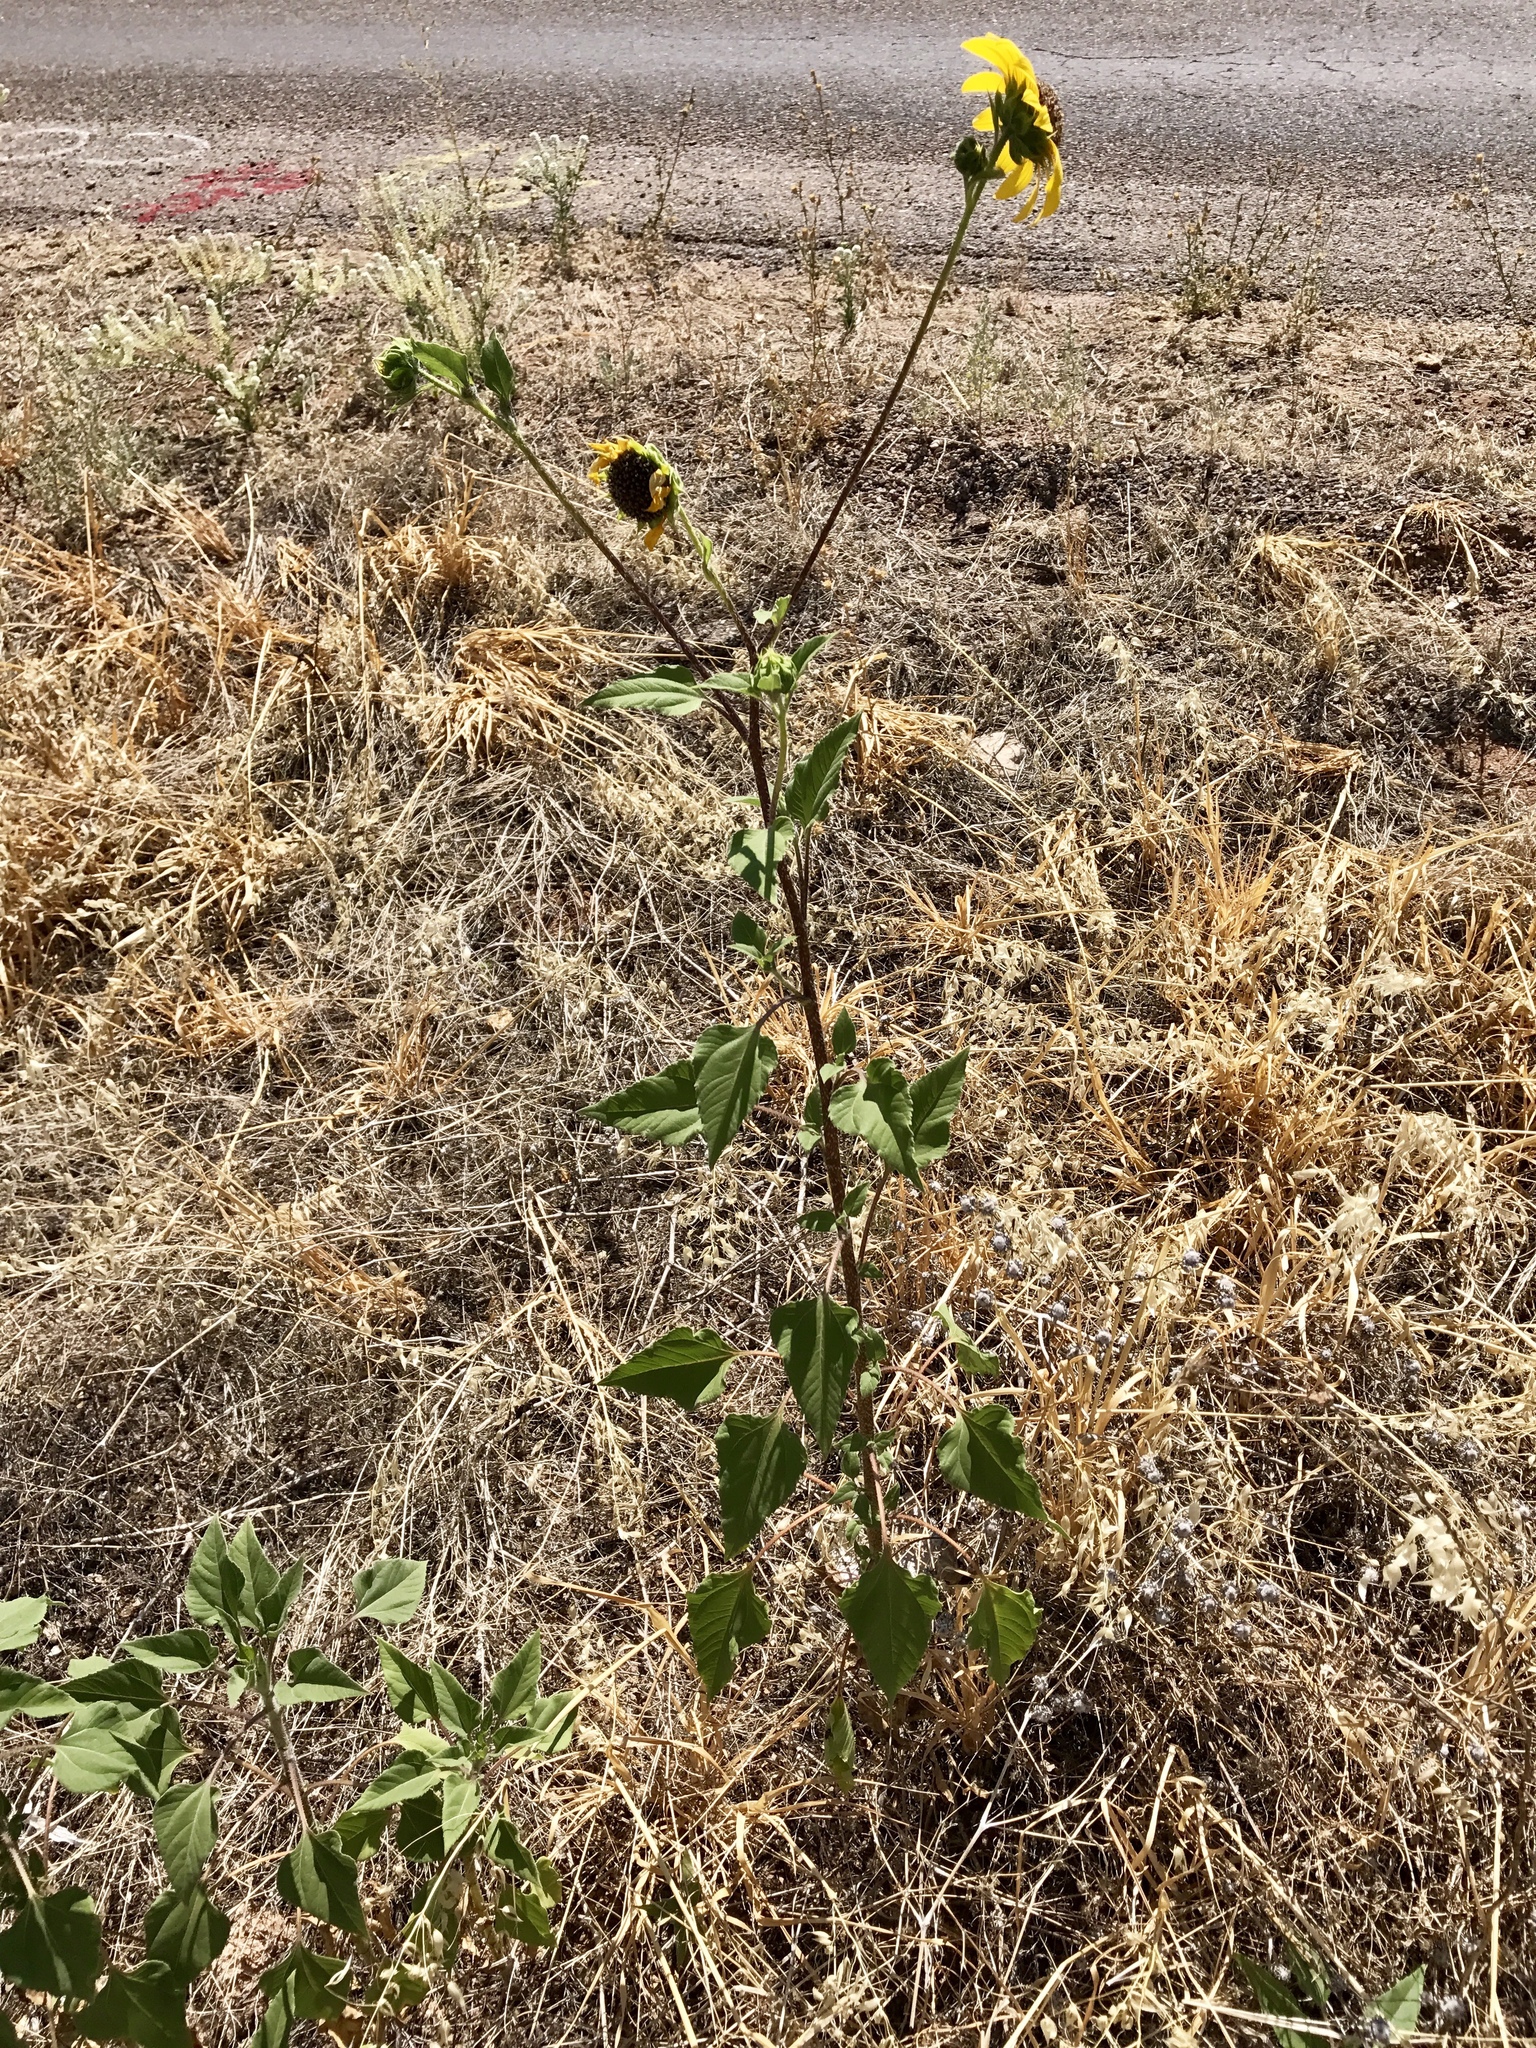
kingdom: Plantae
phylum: Tracheophyta
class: Magnoliopsida
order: Asterales
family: Asteraceae
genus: Helianthus
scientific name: Helianthus annuus
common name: Sunflower
